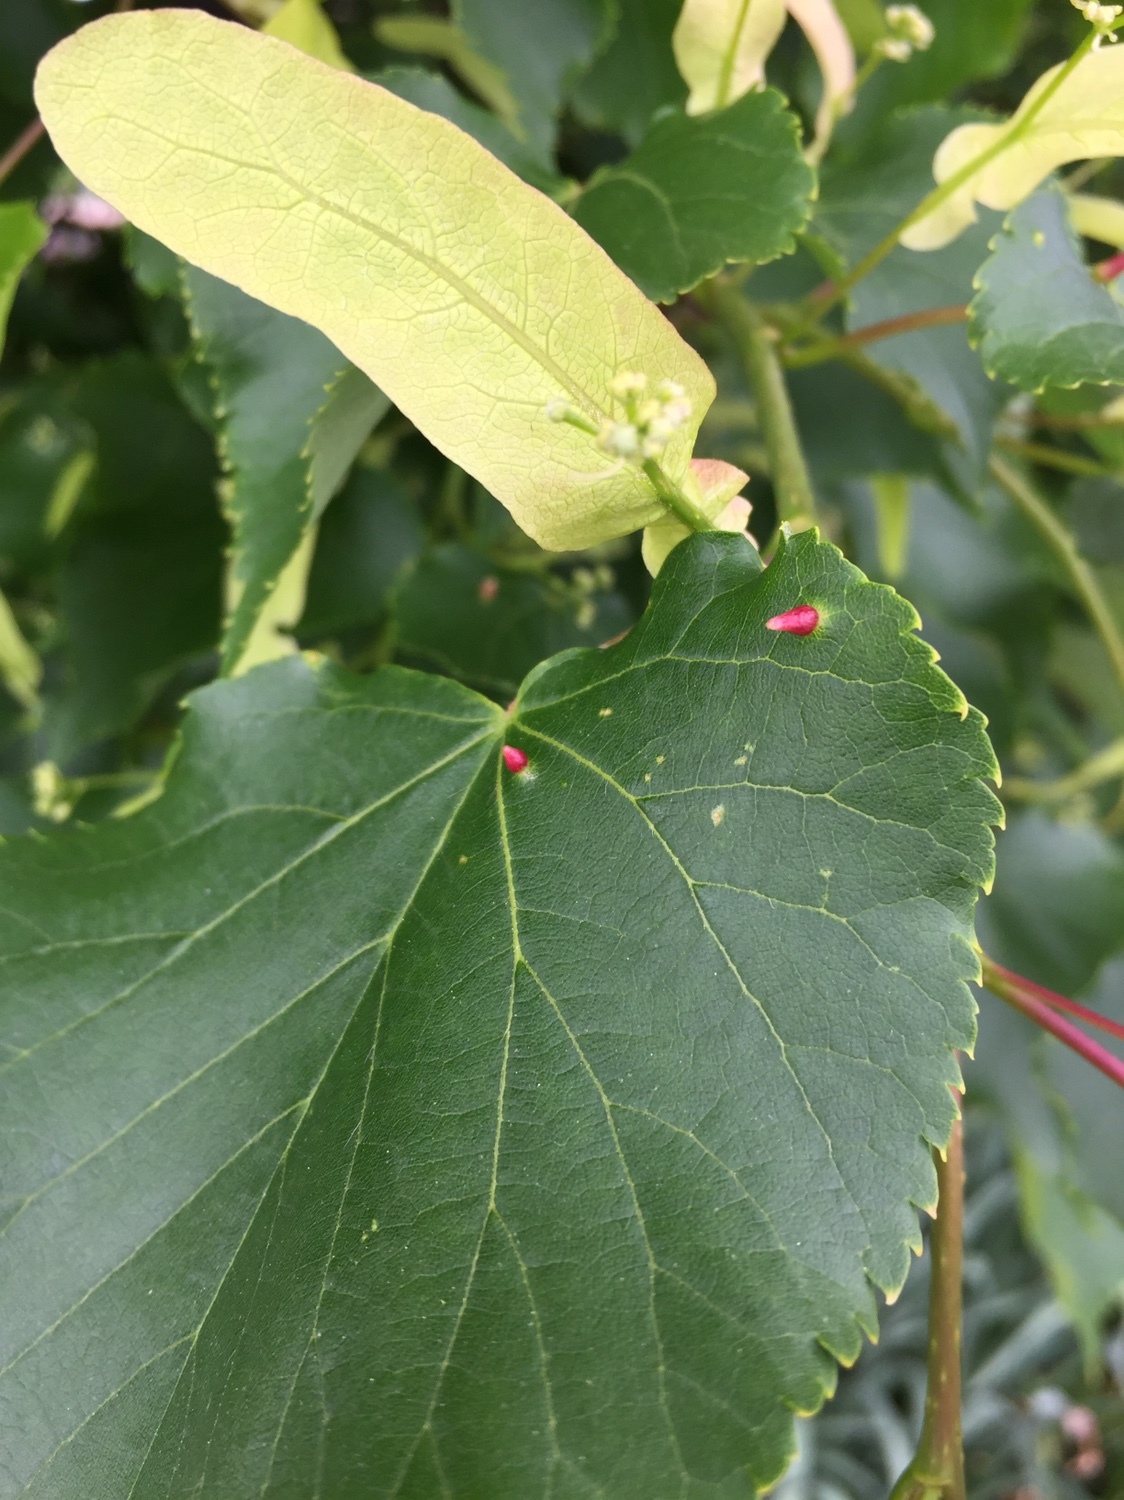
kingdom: Animalia
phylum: Arthropoda
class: Arachnida
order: Trombidiformes
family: Eriophyidae
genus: Eriophyes
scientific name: Eriophyes tiliae
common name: Red nail gall mite
